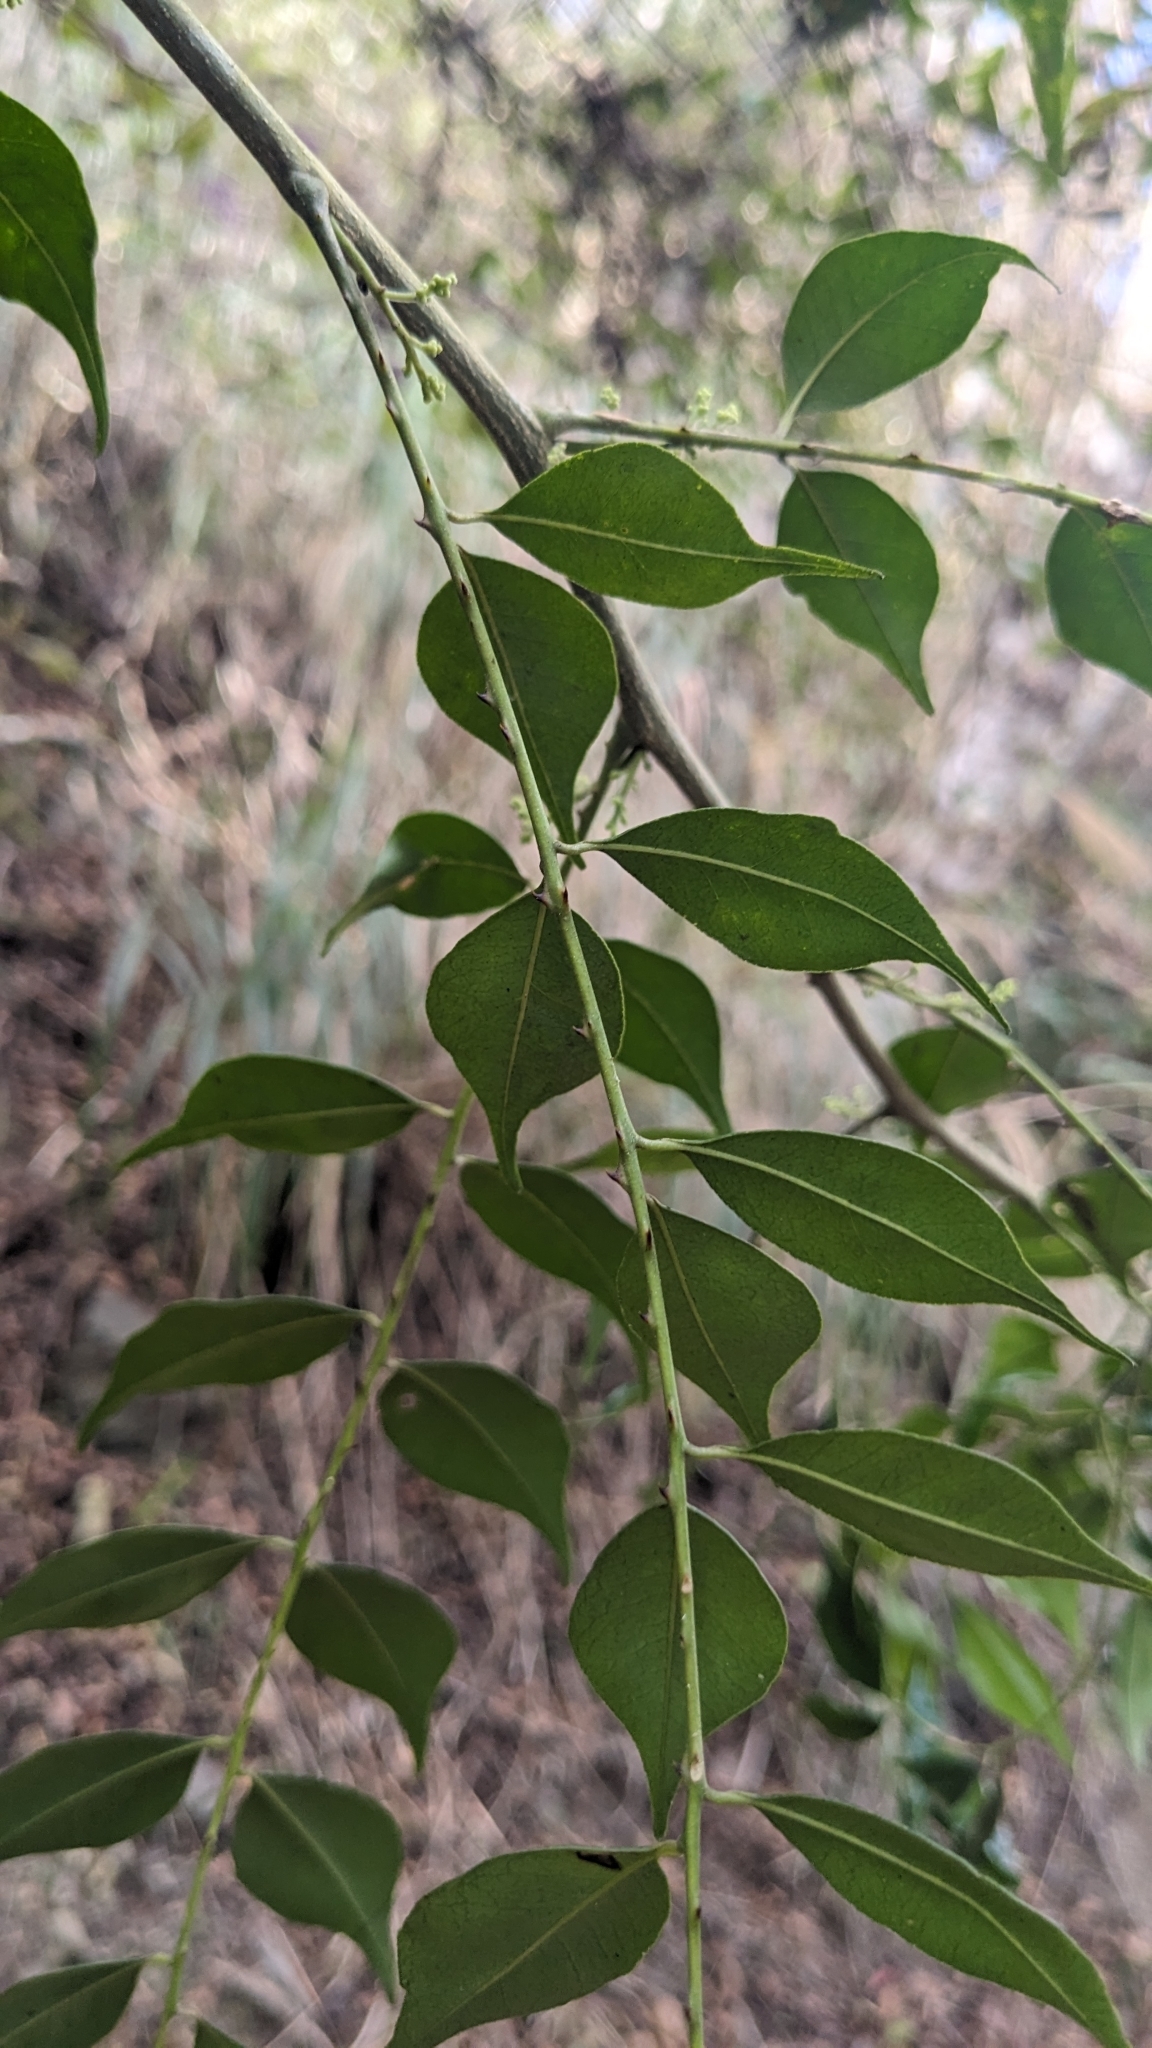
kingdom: Plantae
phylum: Tracheophyta
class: Magnoliopsida
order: Sapindales
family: Rutaceae
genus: Zanthoxylum
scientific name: Zanthoxylum scandens
